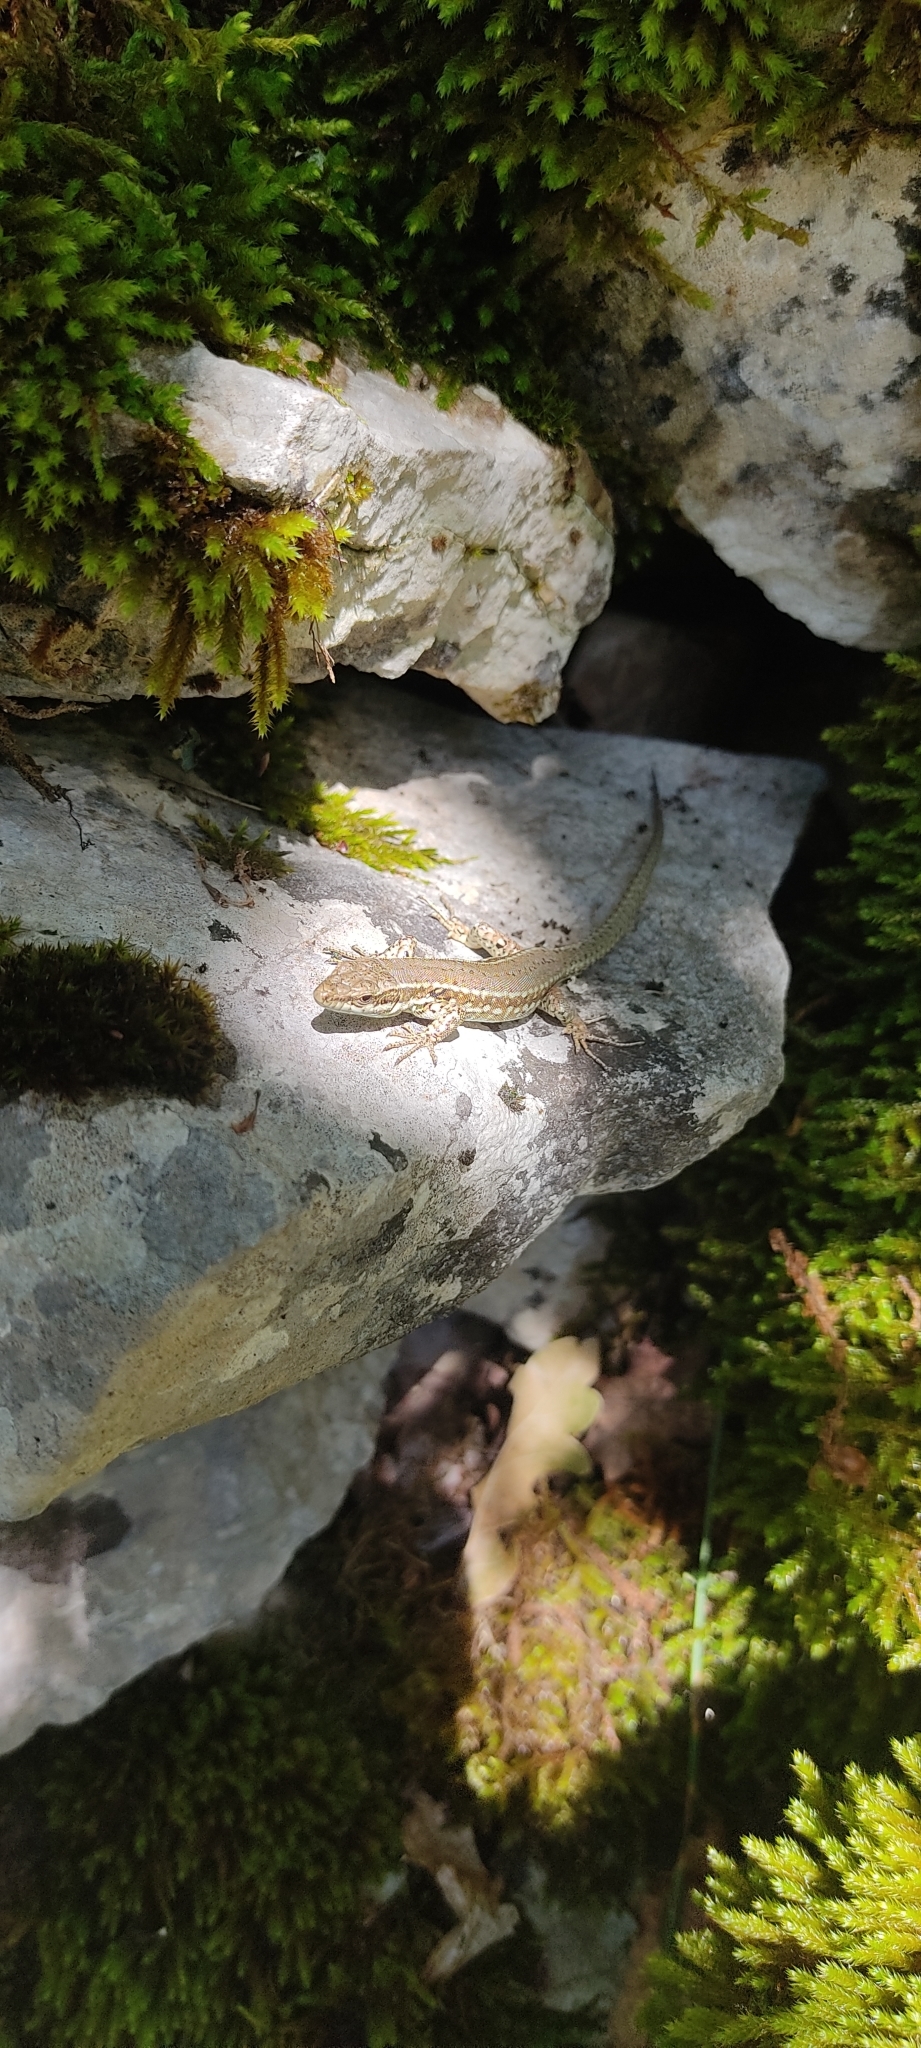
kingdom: Animalia
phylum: Chordata
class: Squamata
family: Lacertidae
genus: Podarcis
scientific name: Podarcis muralis
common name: Common wall lizard
